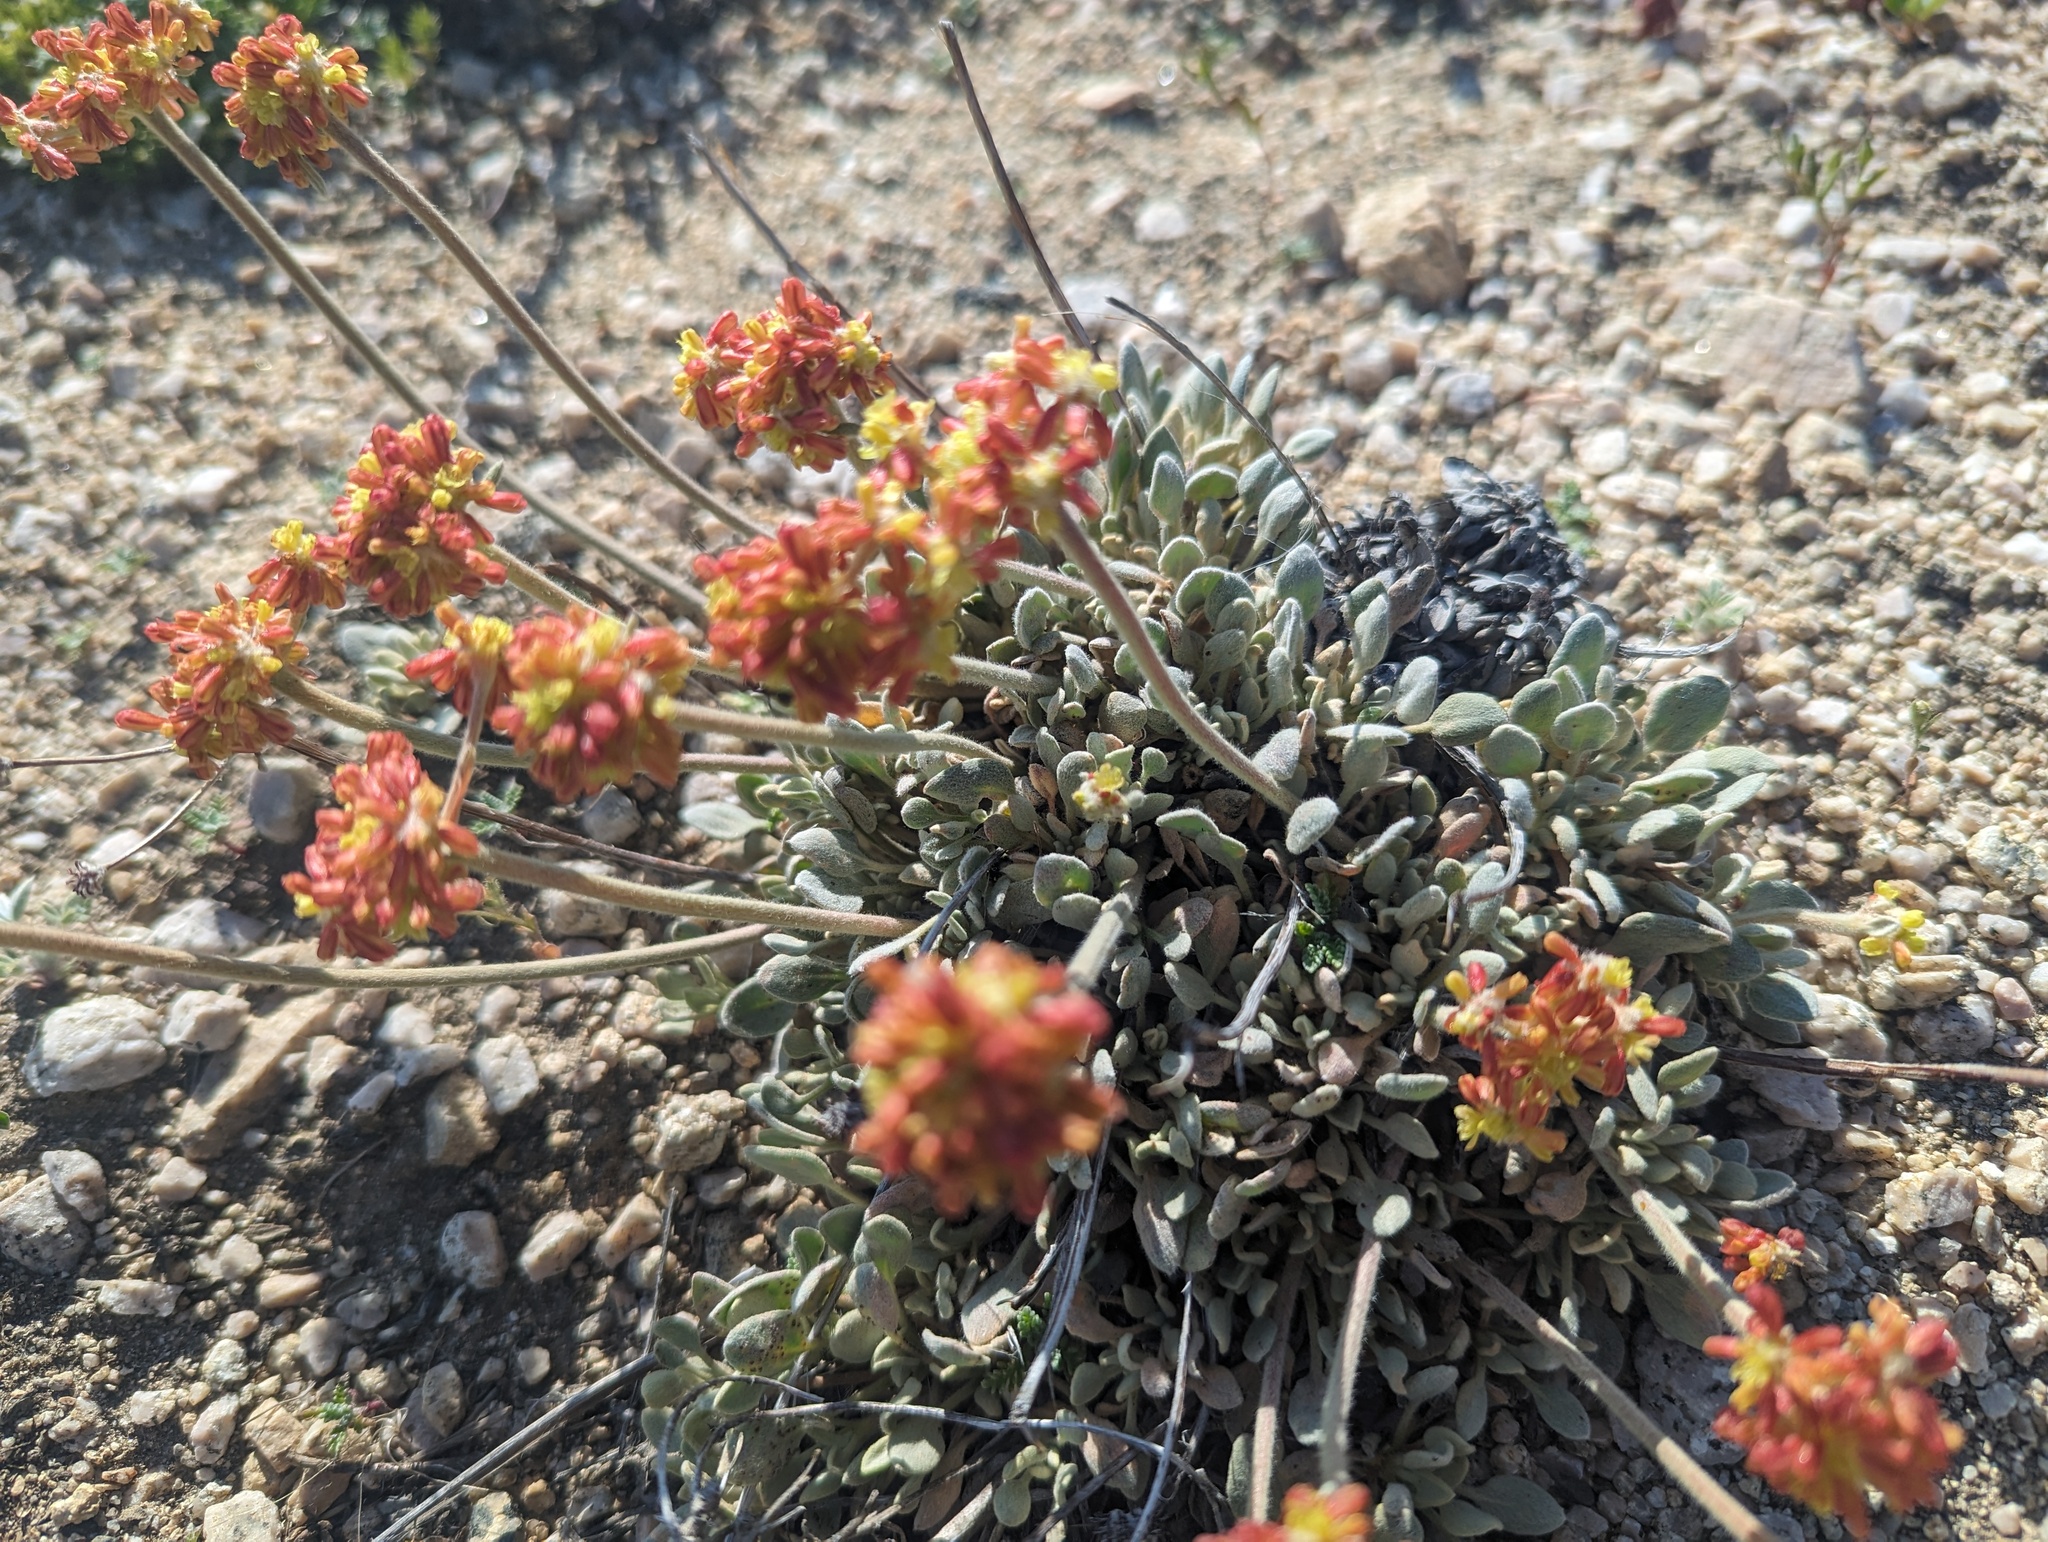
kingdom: Plantae
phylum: Tracheophyta
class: Magnoliopsida
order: Caryophyllales
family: Polygonaceae
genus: Eriogonum
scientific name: Eriogonum diclinum
